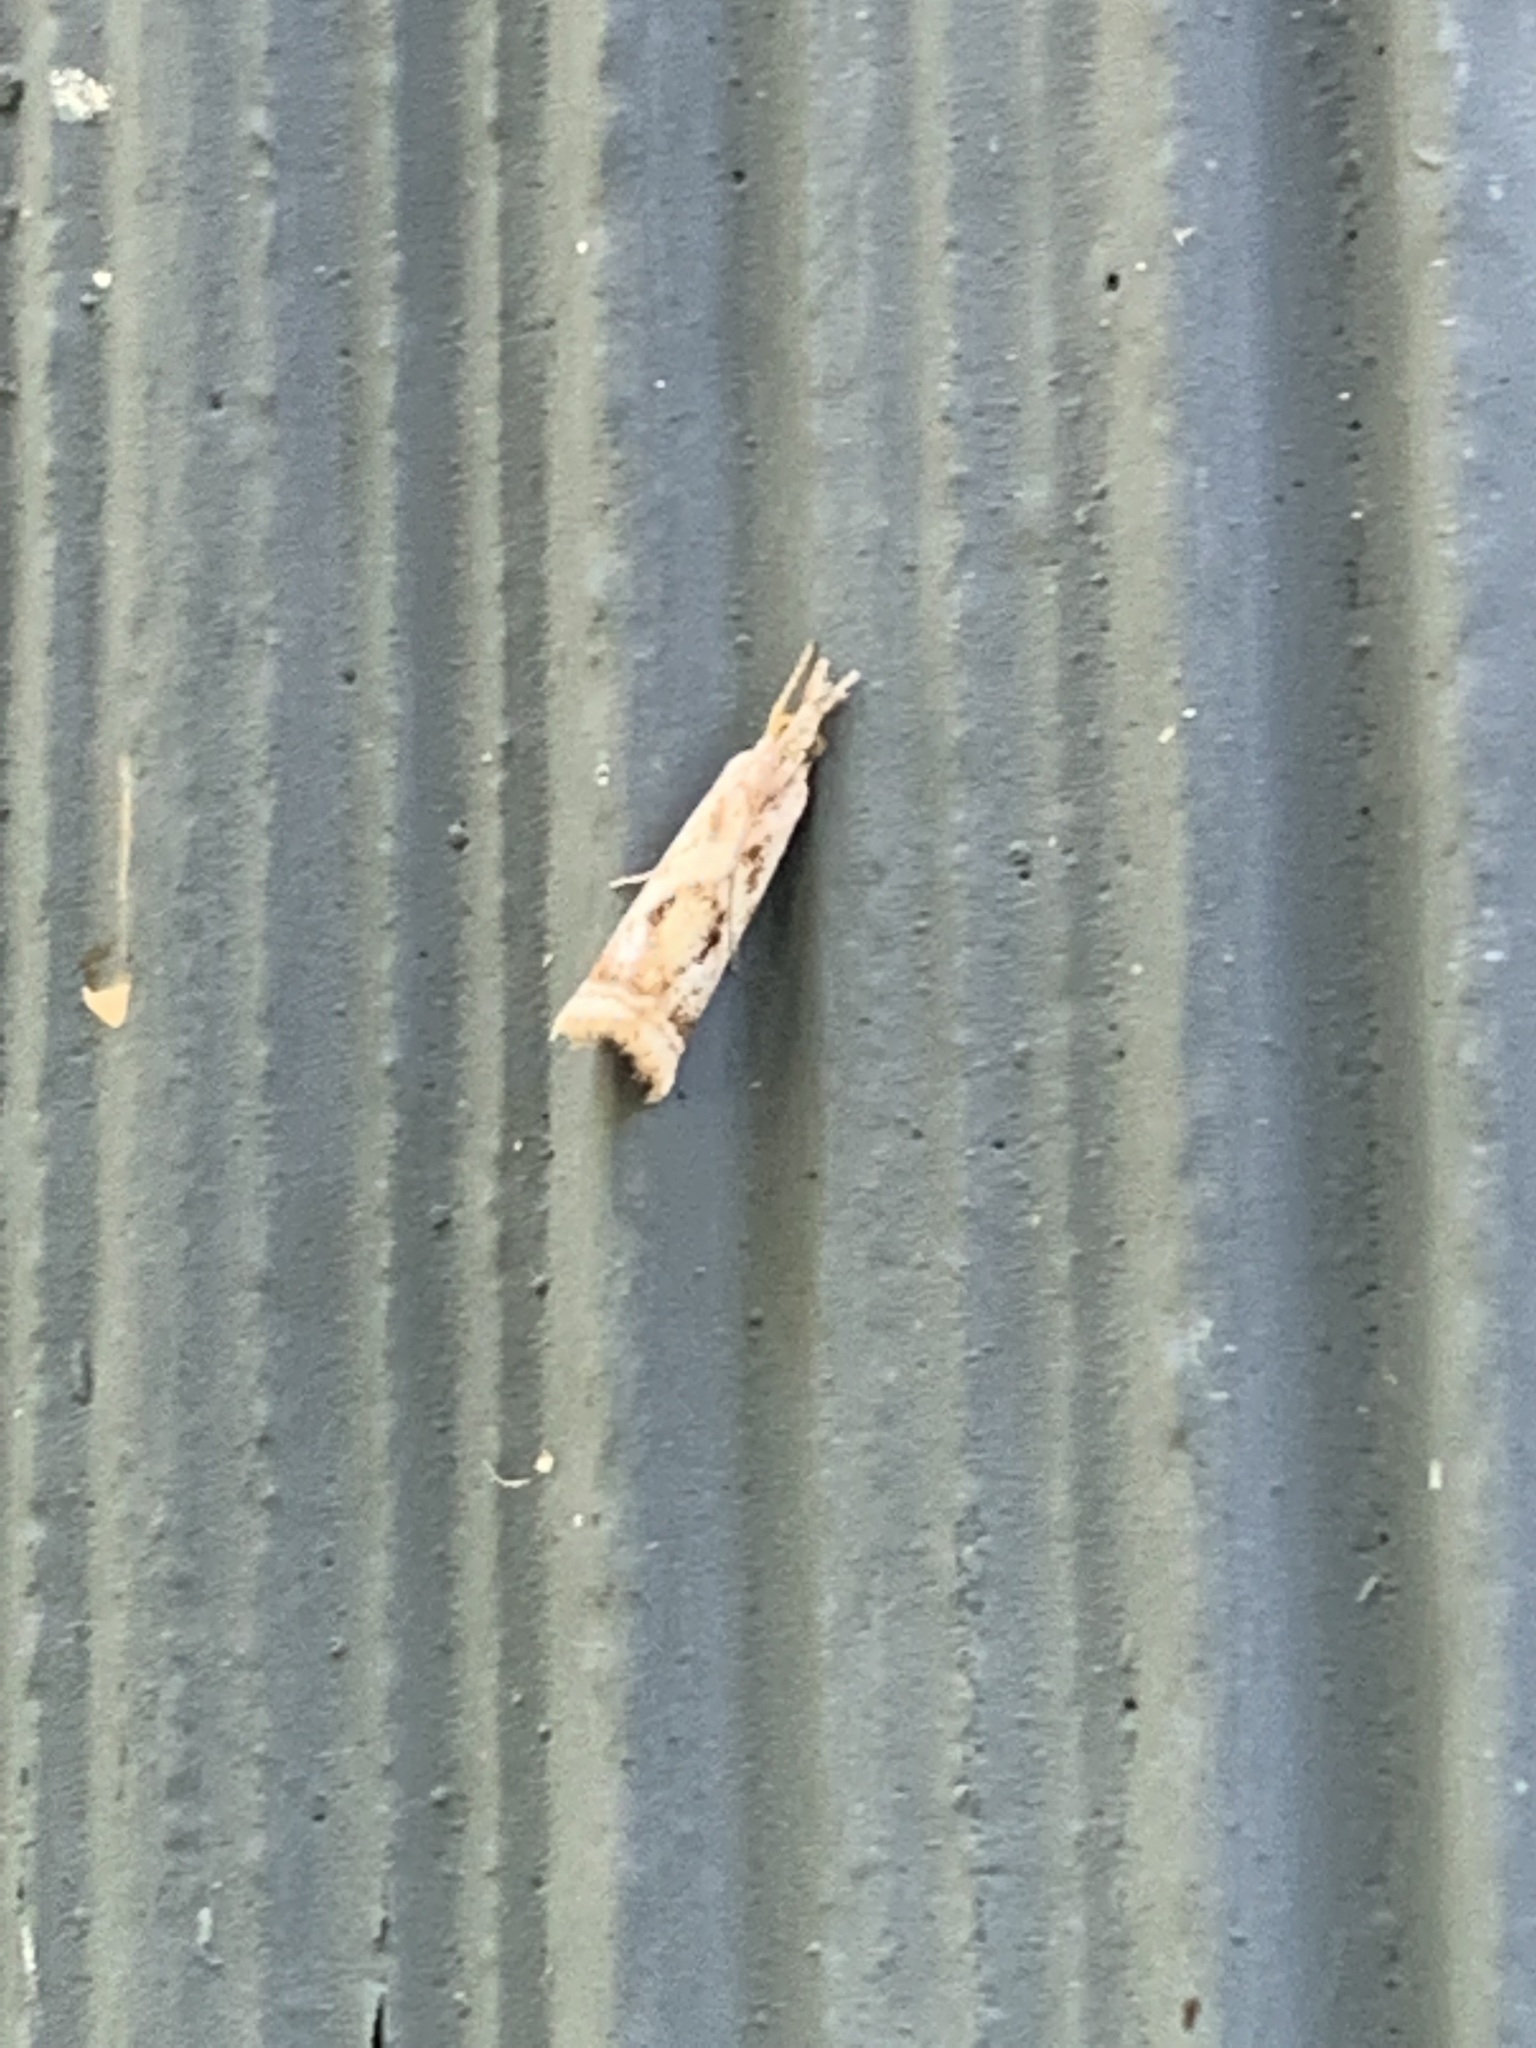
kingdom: Animalia
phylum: Arthropoda
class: Insecta
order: Lepidoptera
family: Crambidae
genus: Microcrambus
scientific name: Microcrambus elegans
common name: Elegant grass-veneer
